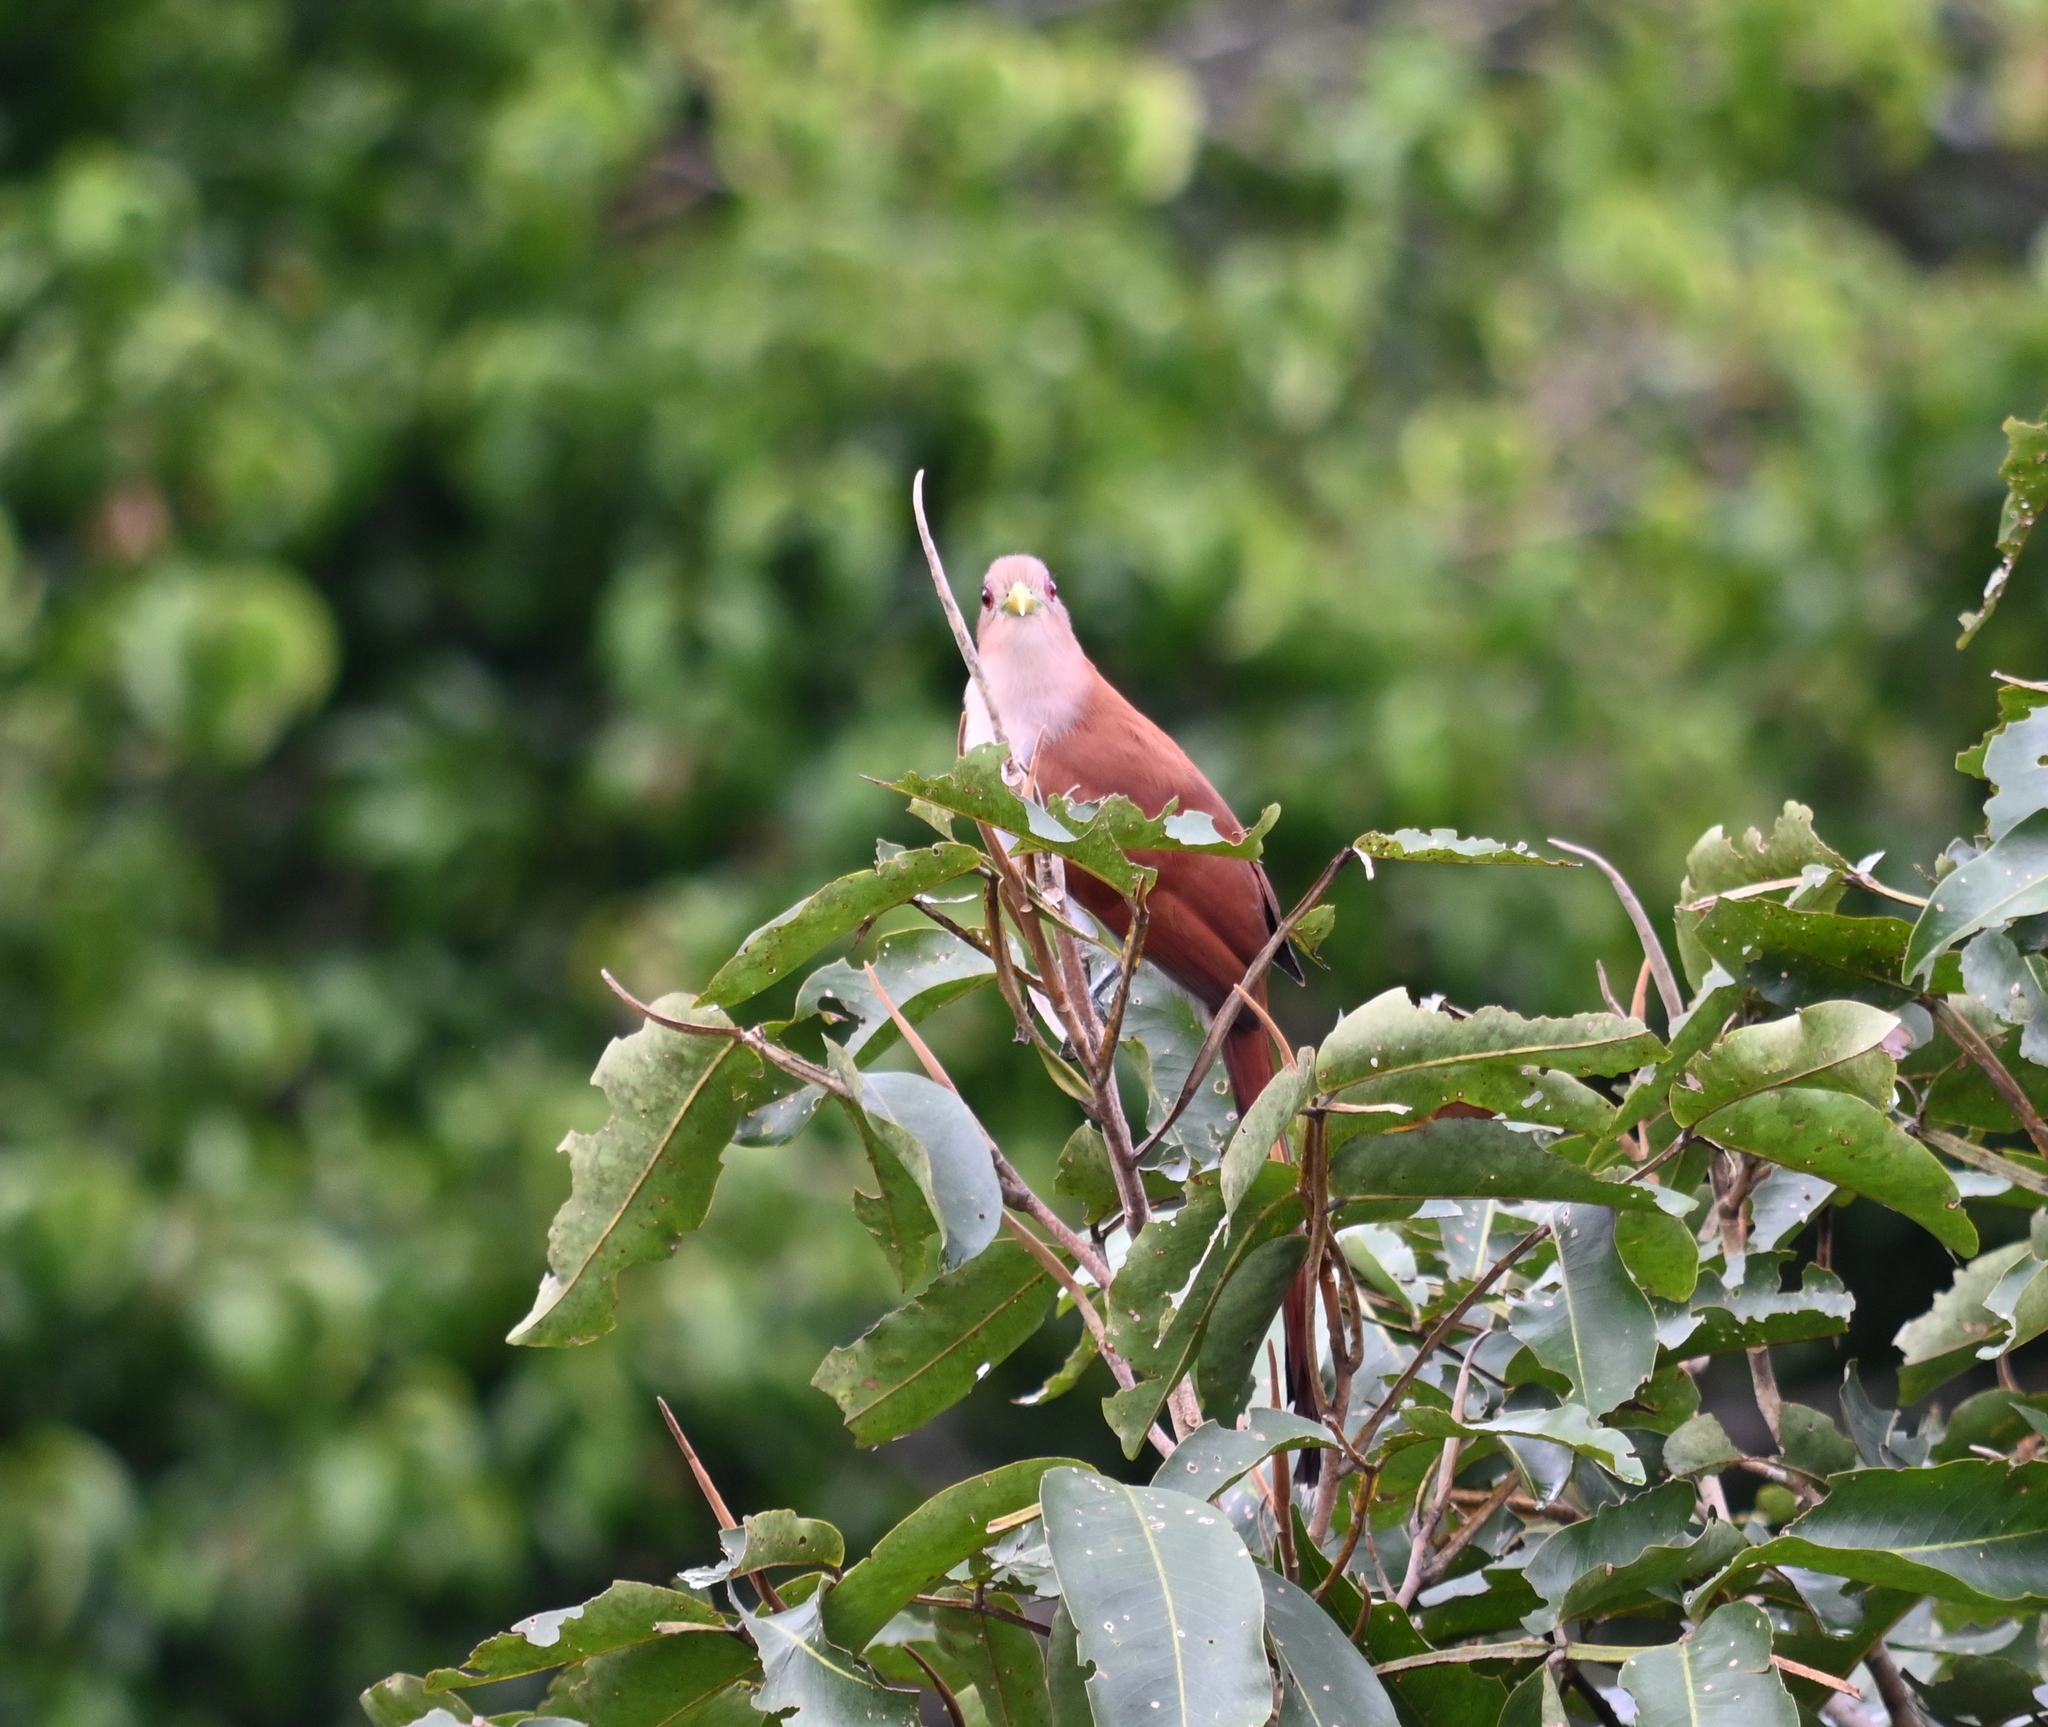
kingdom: Animalia
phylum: Chordata
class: Aves
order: Cuculiformes
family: Cuculidae
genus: Piaya
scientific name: Piaya cayana
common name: Squirrel cuckoo
